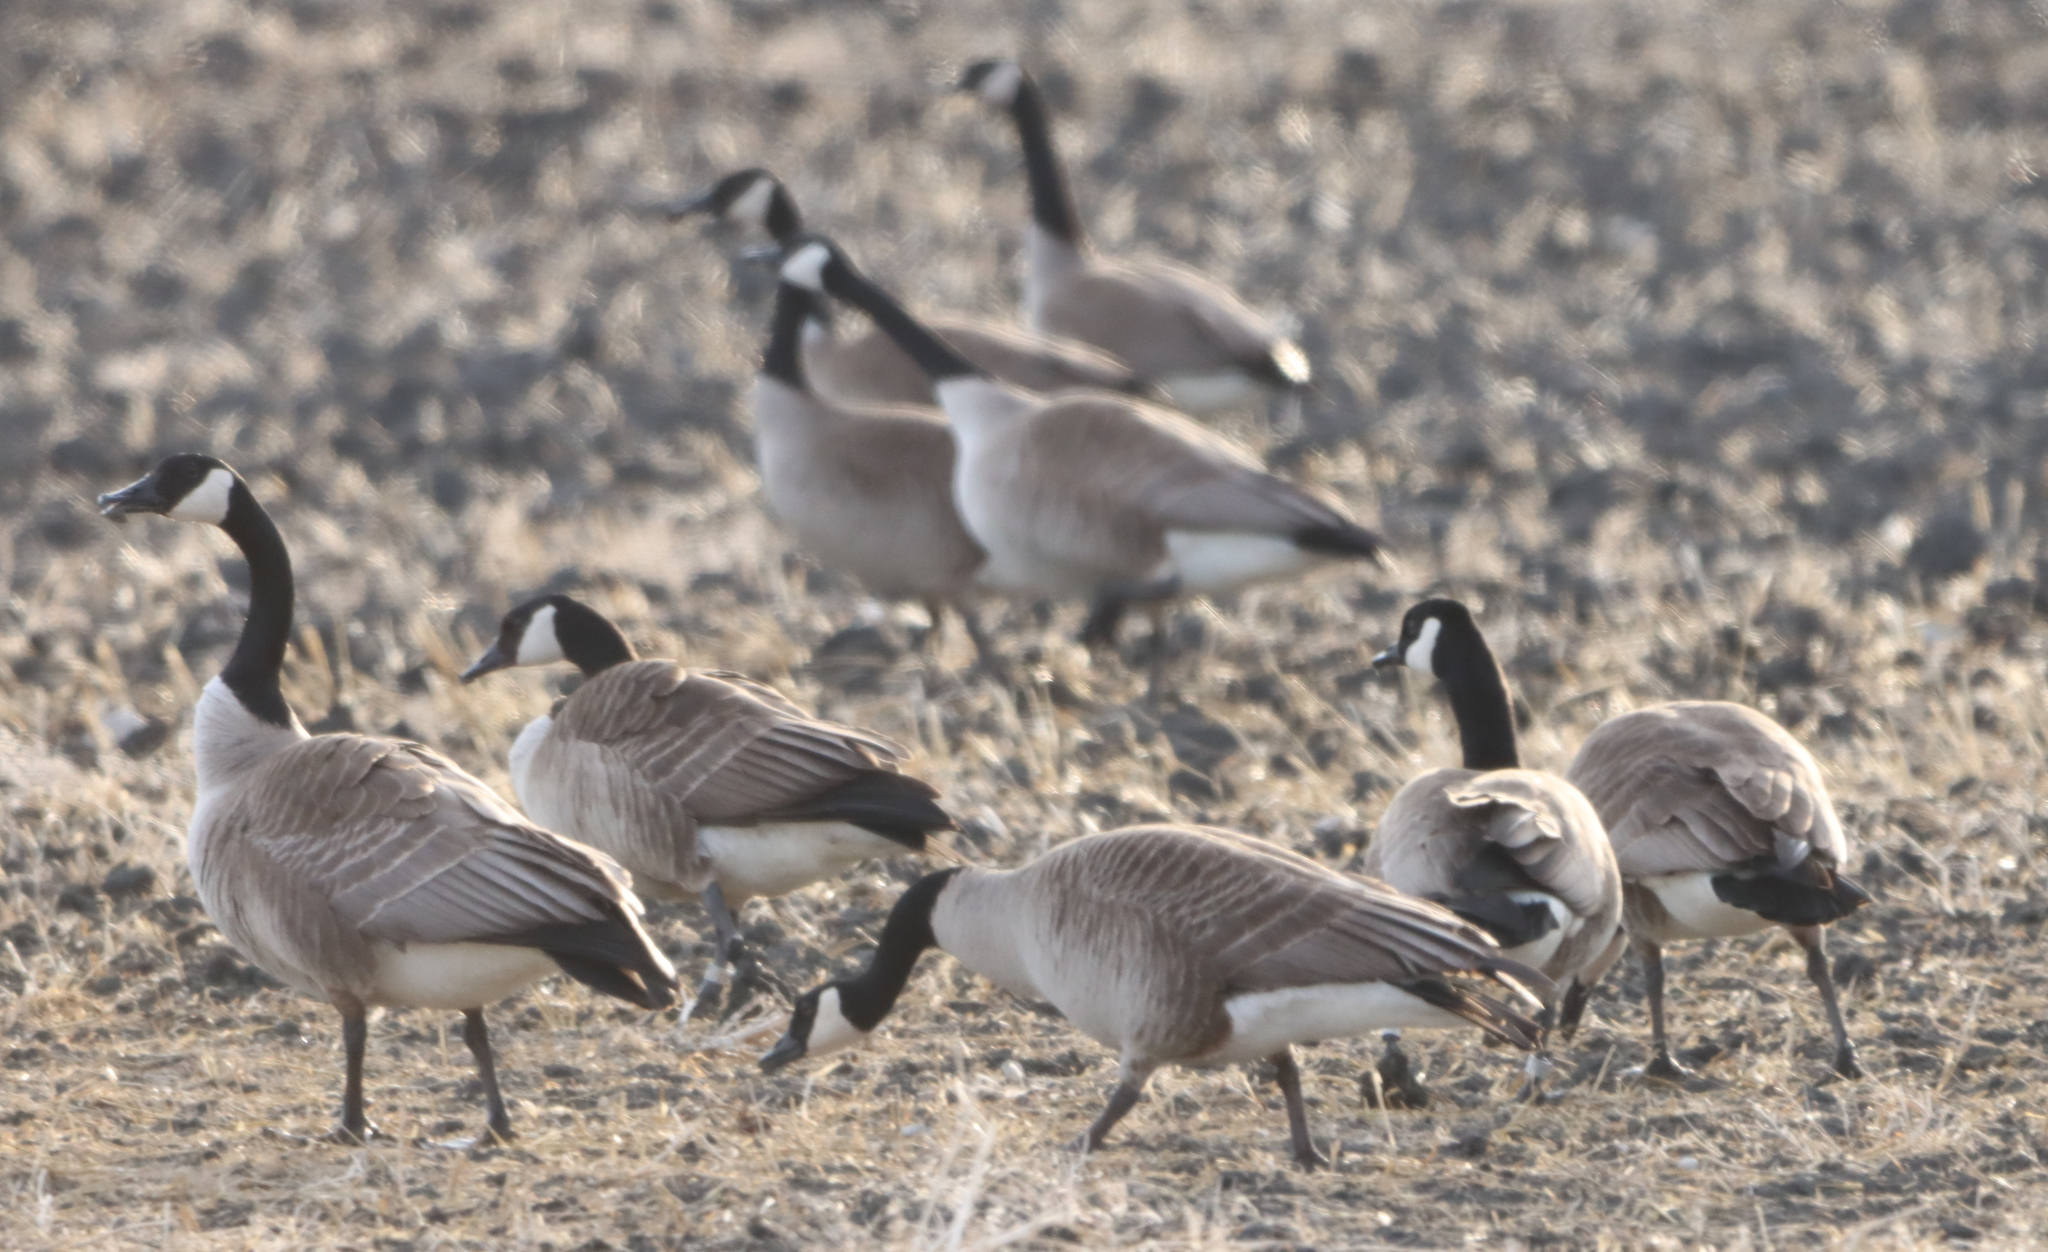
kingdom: Animalia
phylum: Chordata
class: Aves
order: Anseriformes
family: Anatidae
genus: Branta
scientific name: Branta canadensis
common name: Canada goose
